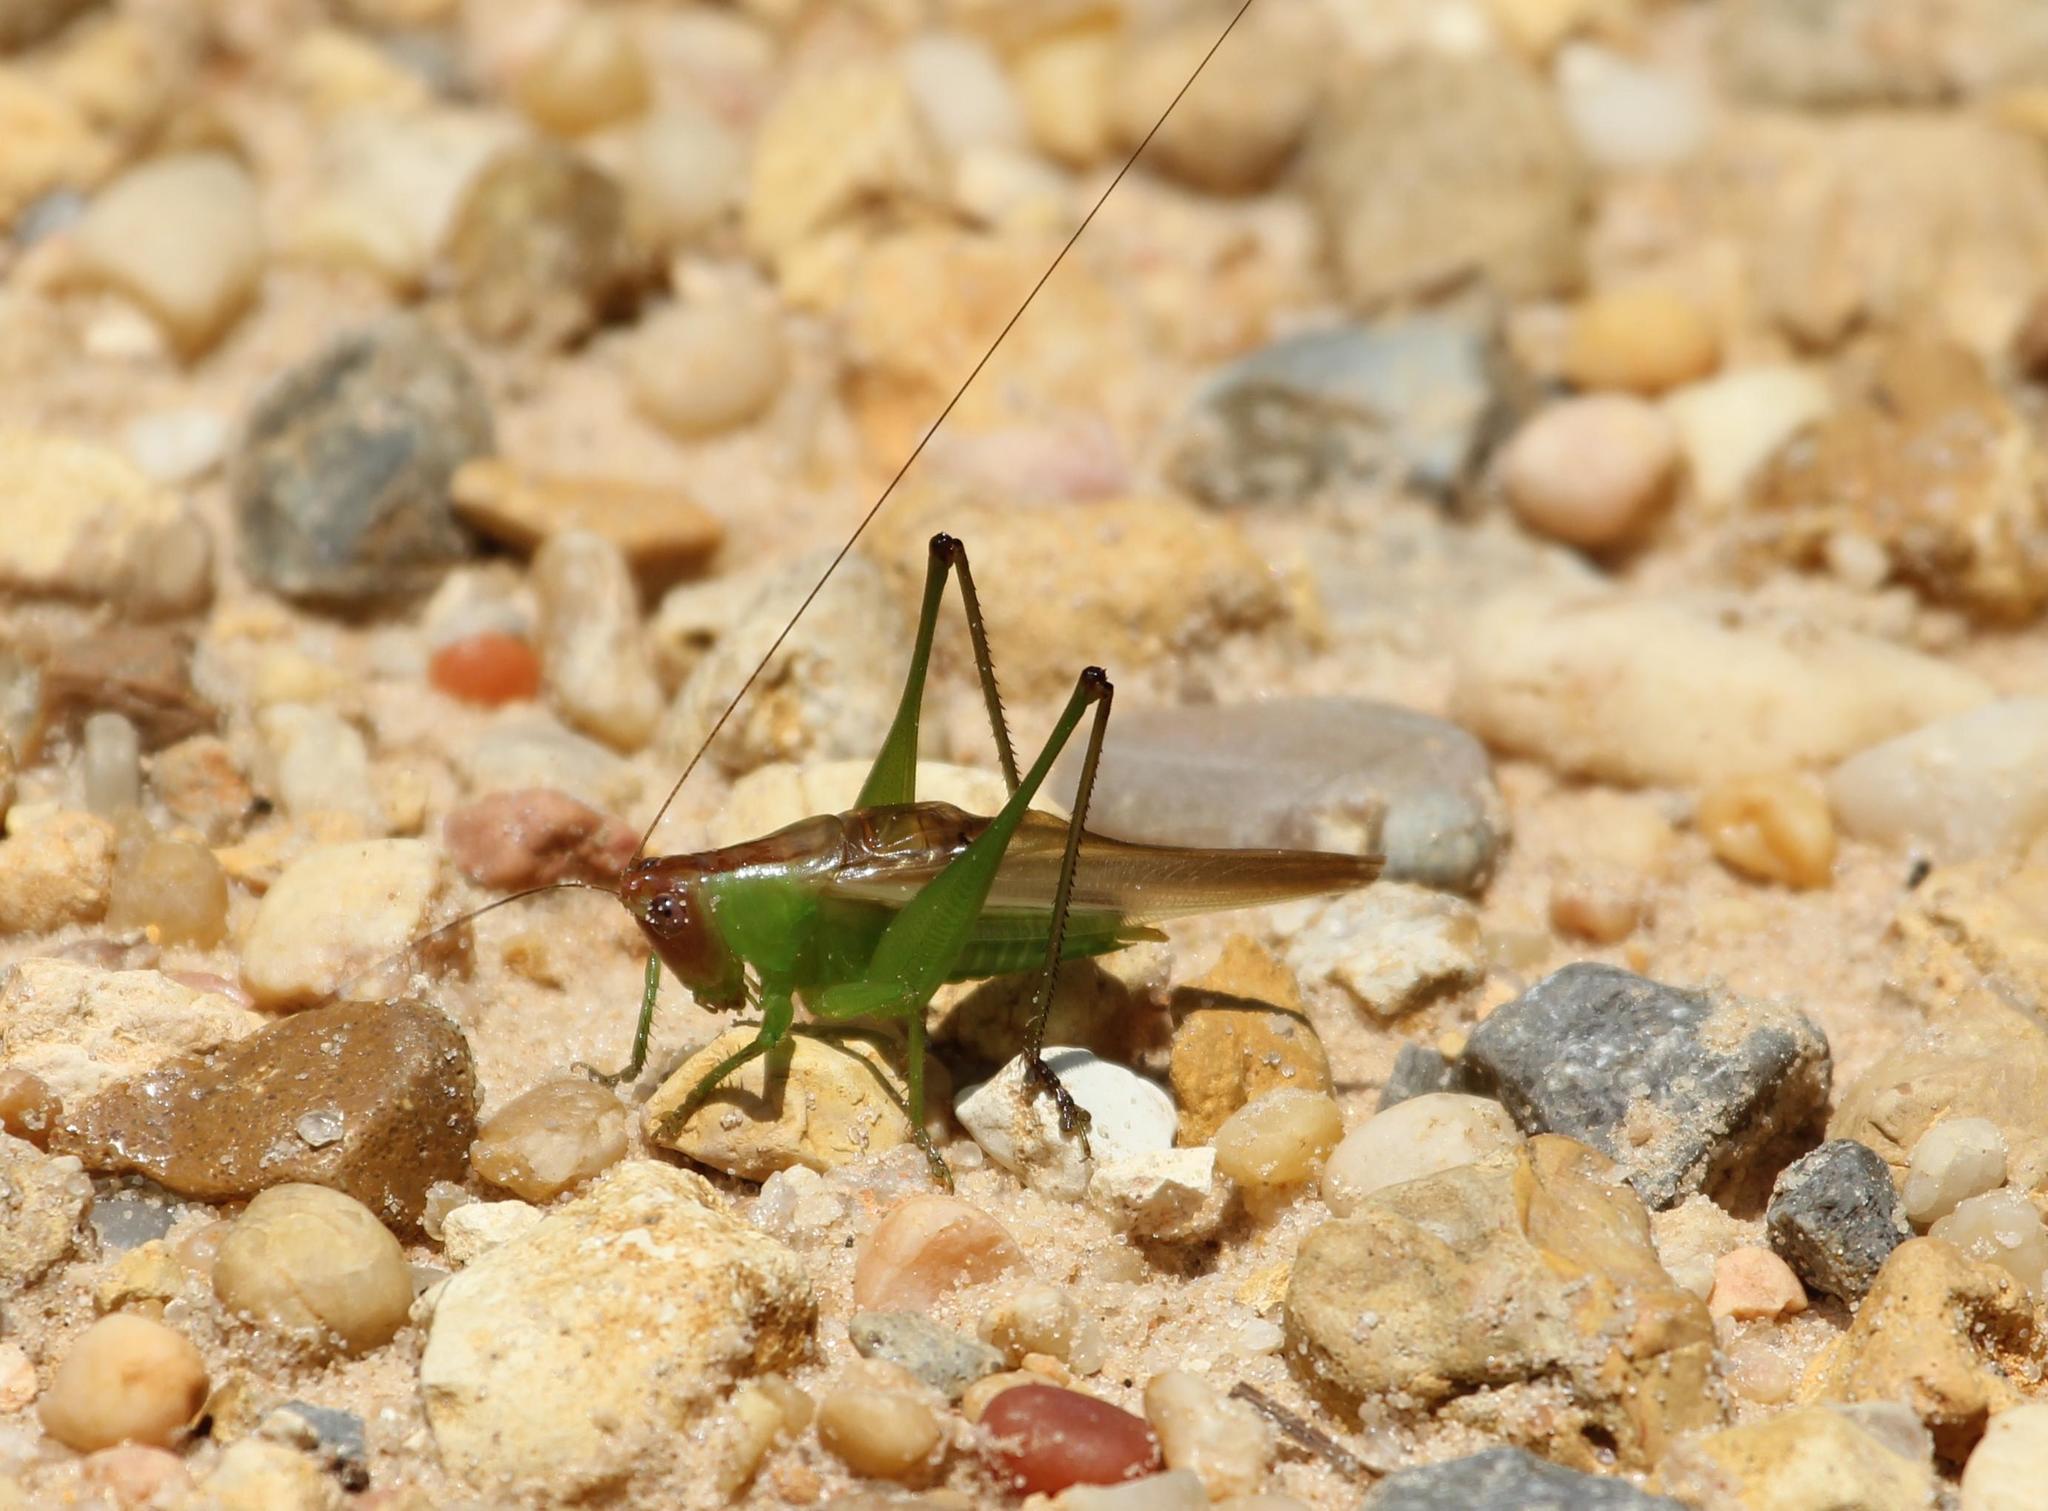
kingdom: Animalia
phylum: Arthropoda
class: Insecta
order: Orthoptera
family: Tettigoniidae
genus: Orchelimum
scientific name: Orchelimum erythrocephalum
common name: Red-headed meadow katydid
